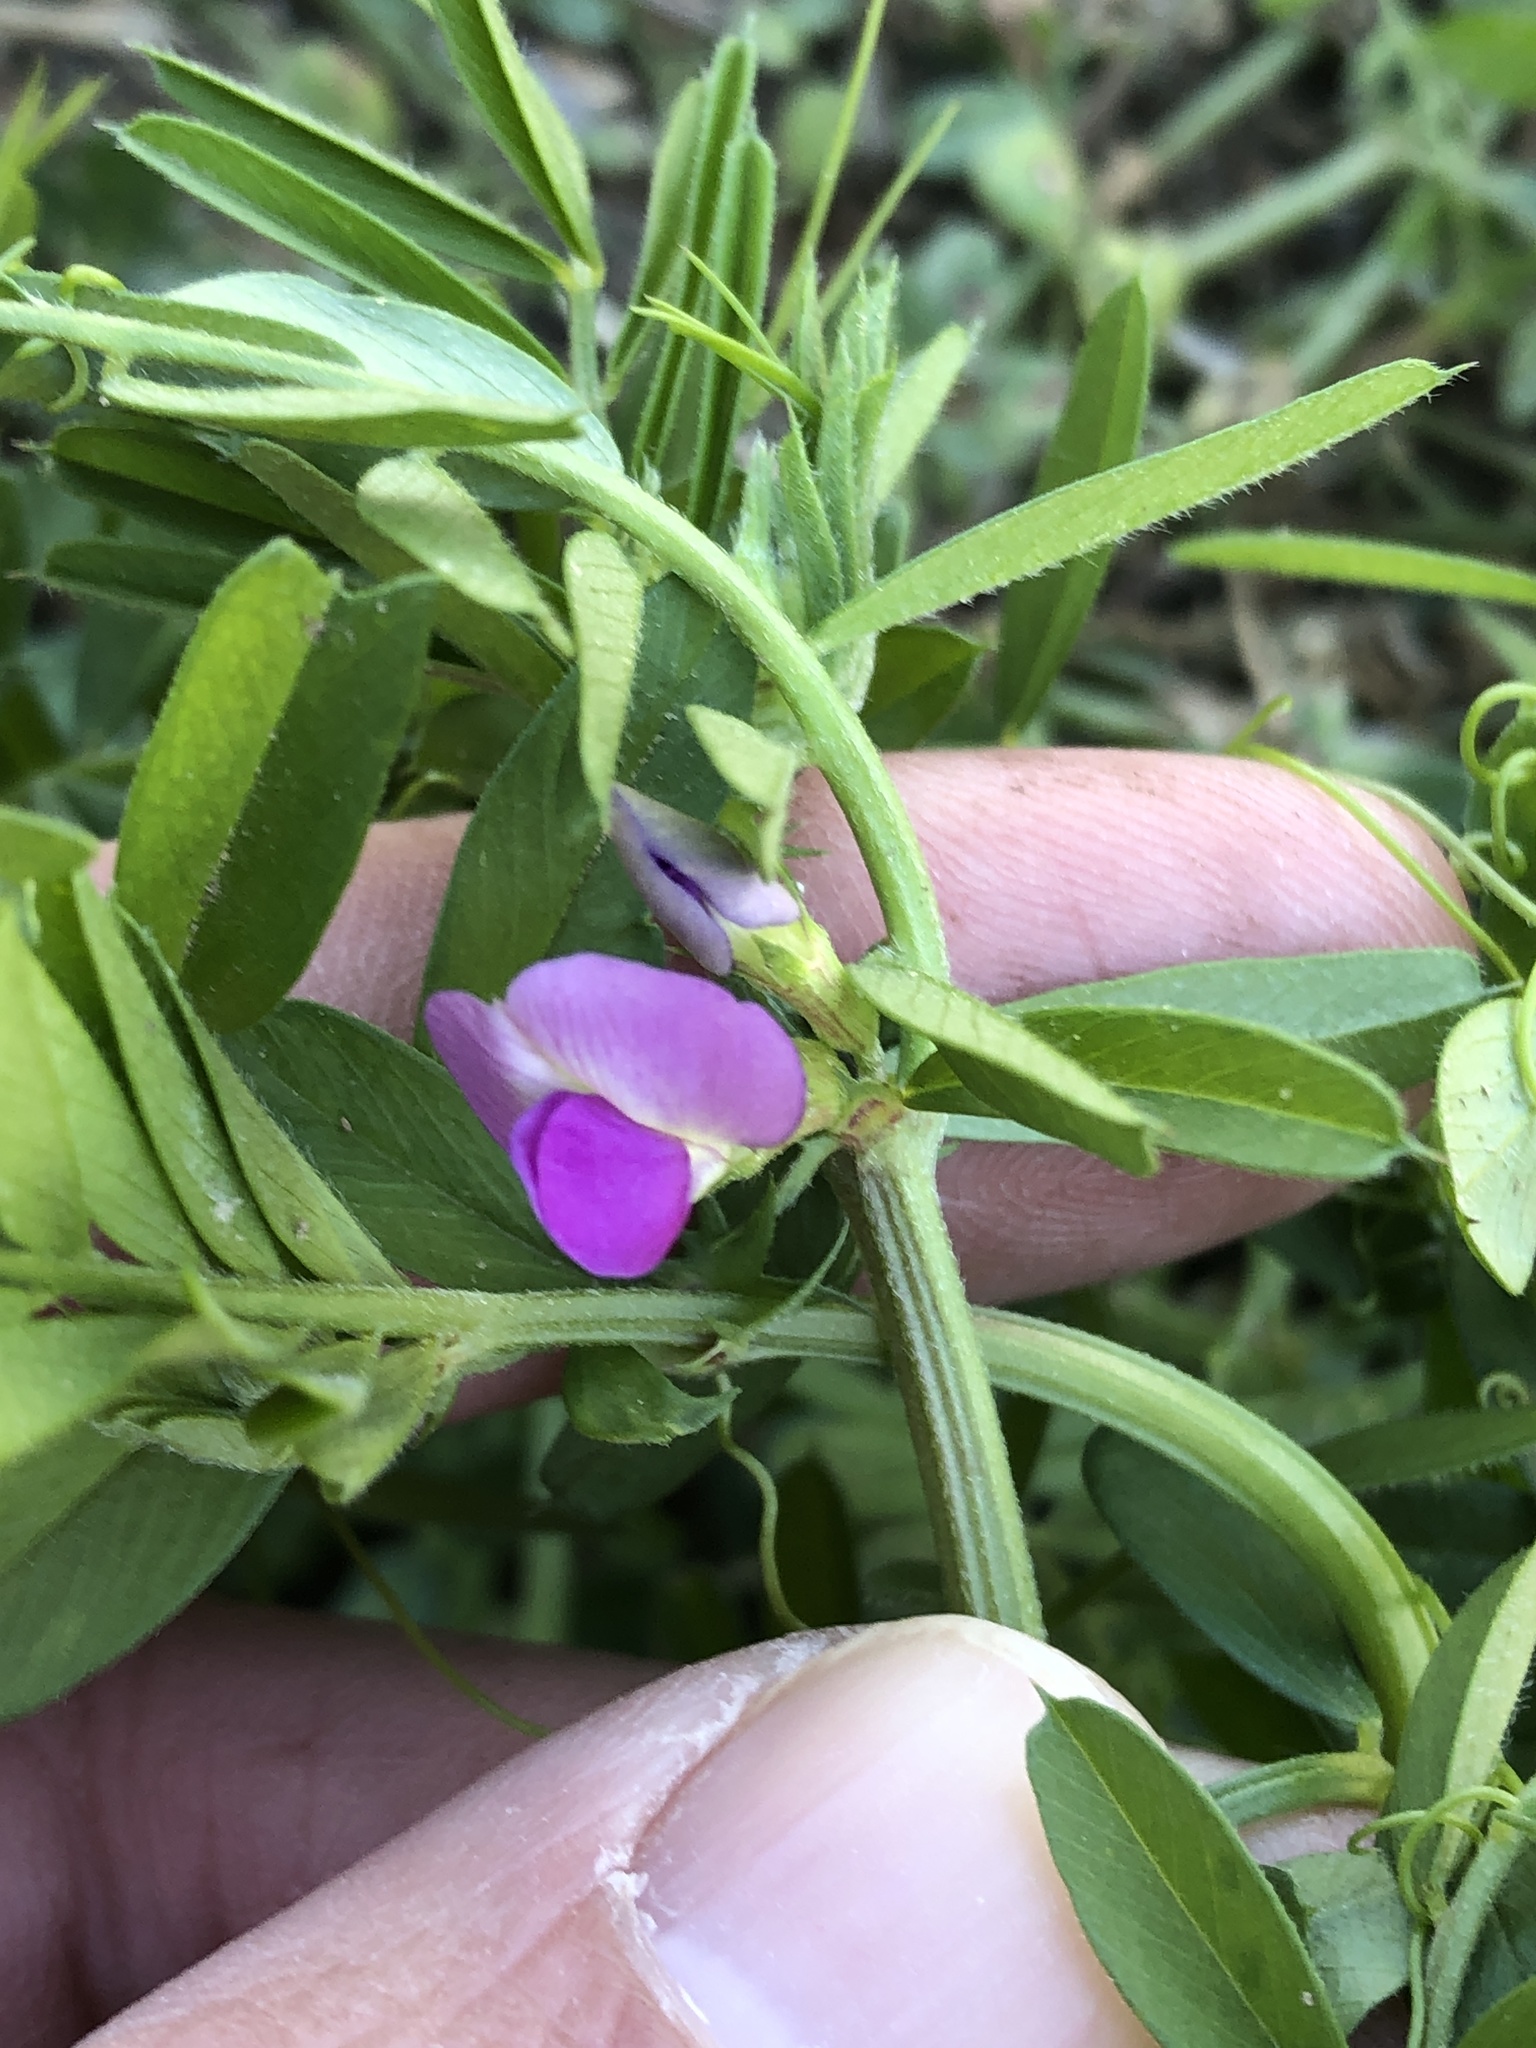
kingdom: Plantae
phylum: Tracheophyta
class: Magnoliopsida
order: Fabales
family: Fabaceae
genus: Vicia
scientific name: Vicia sativa
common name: Garden vetch
